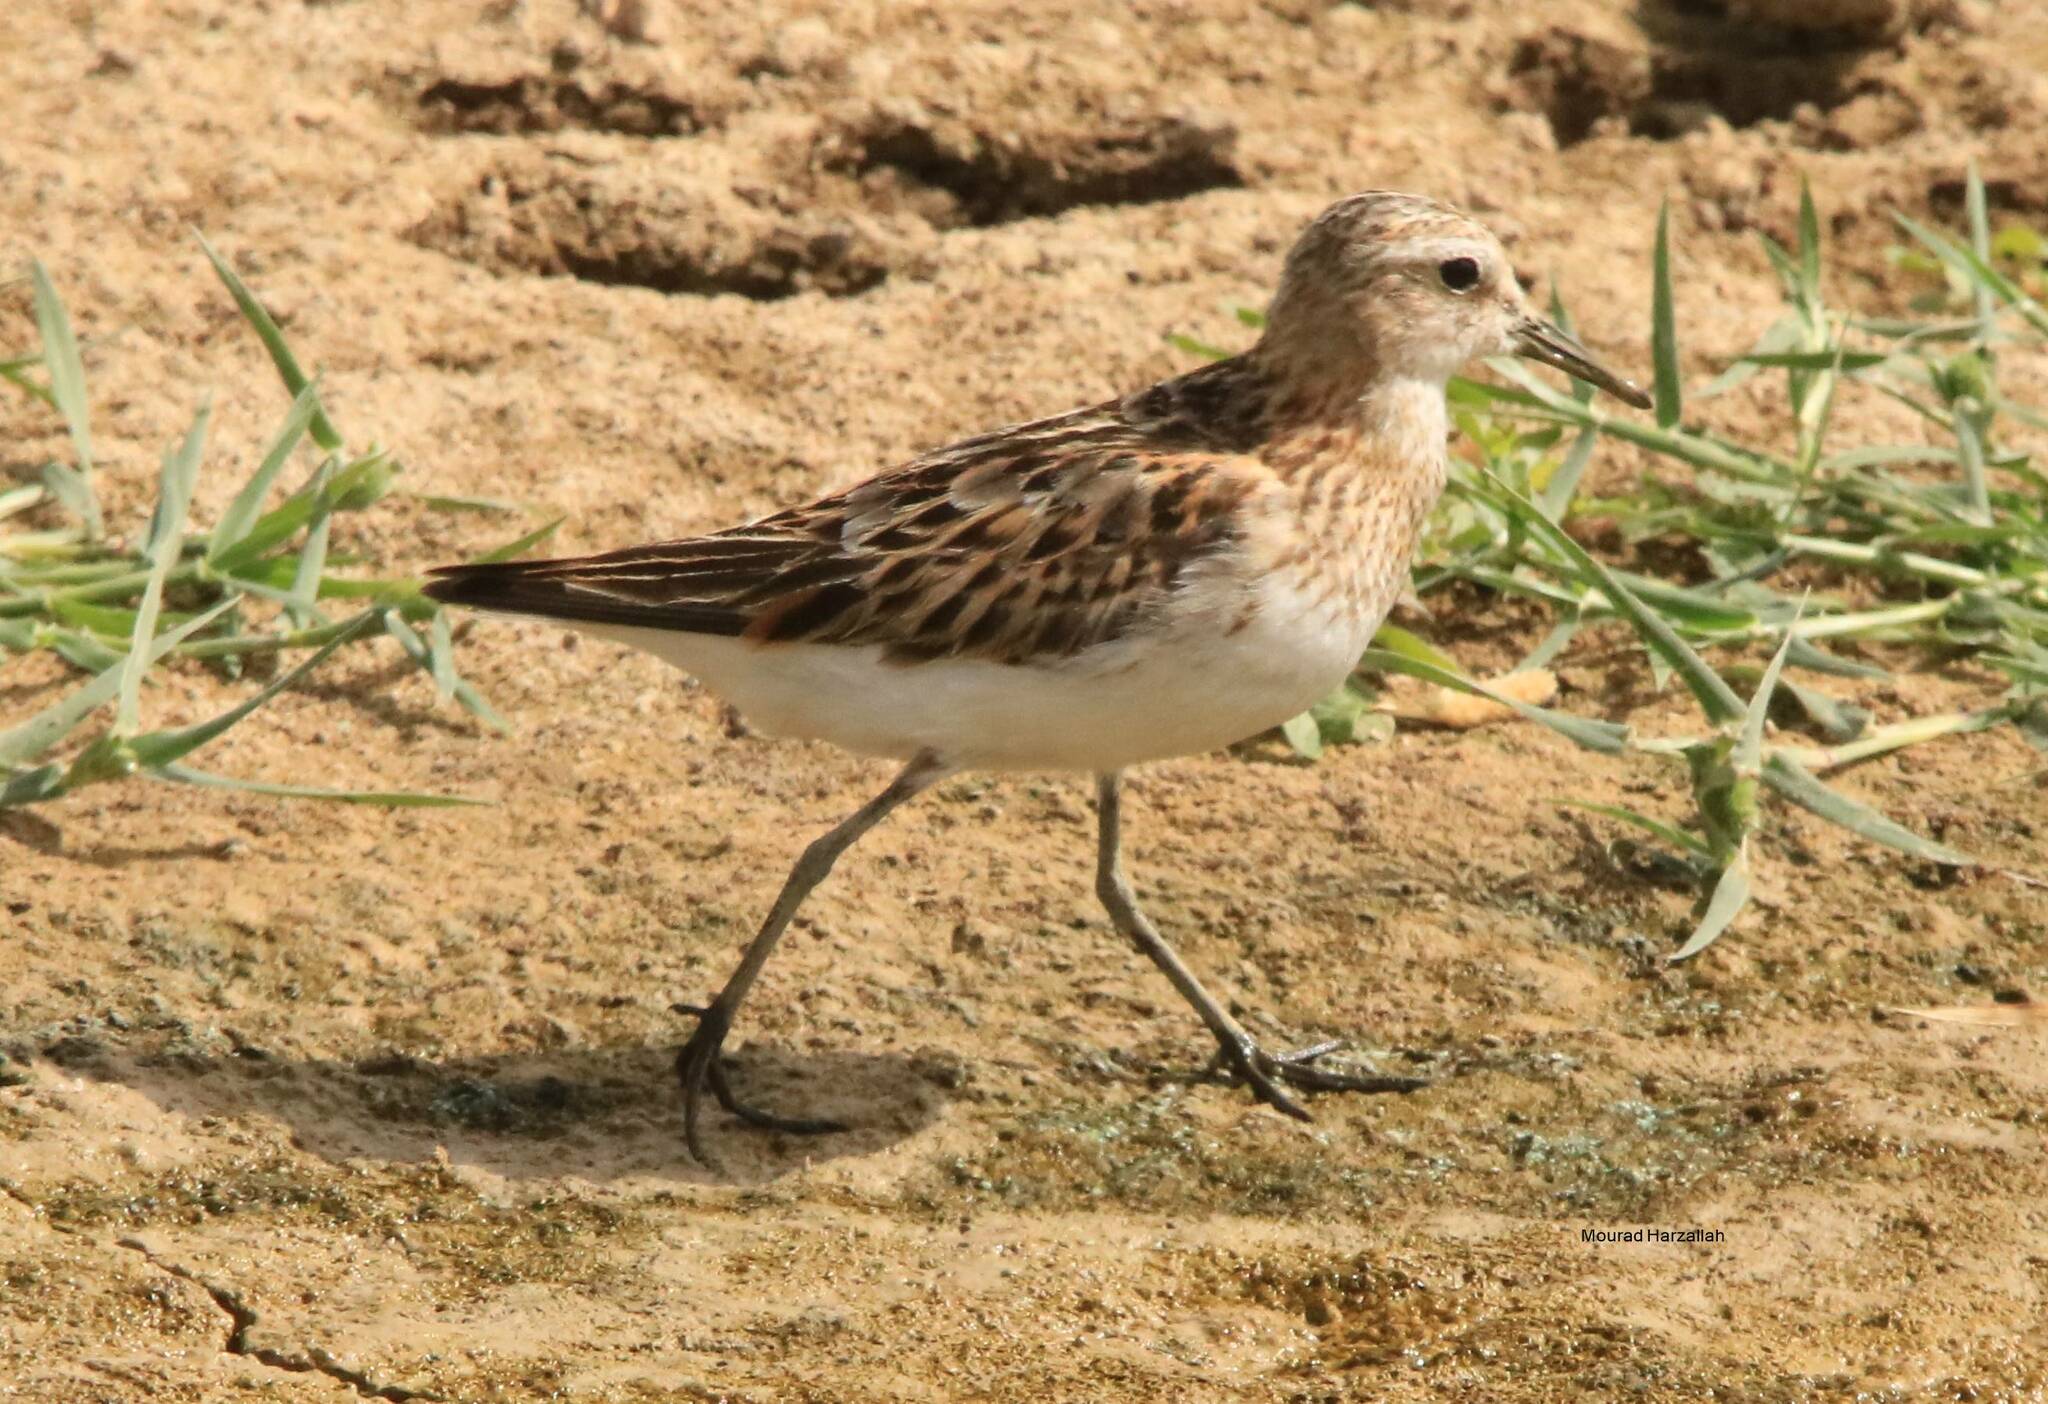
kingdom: Animalia
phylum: Chordata
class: Aves
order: Charadriiformes
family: Scolopacidae
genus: Calidris
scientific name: Calidris minuta
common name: Little stint
